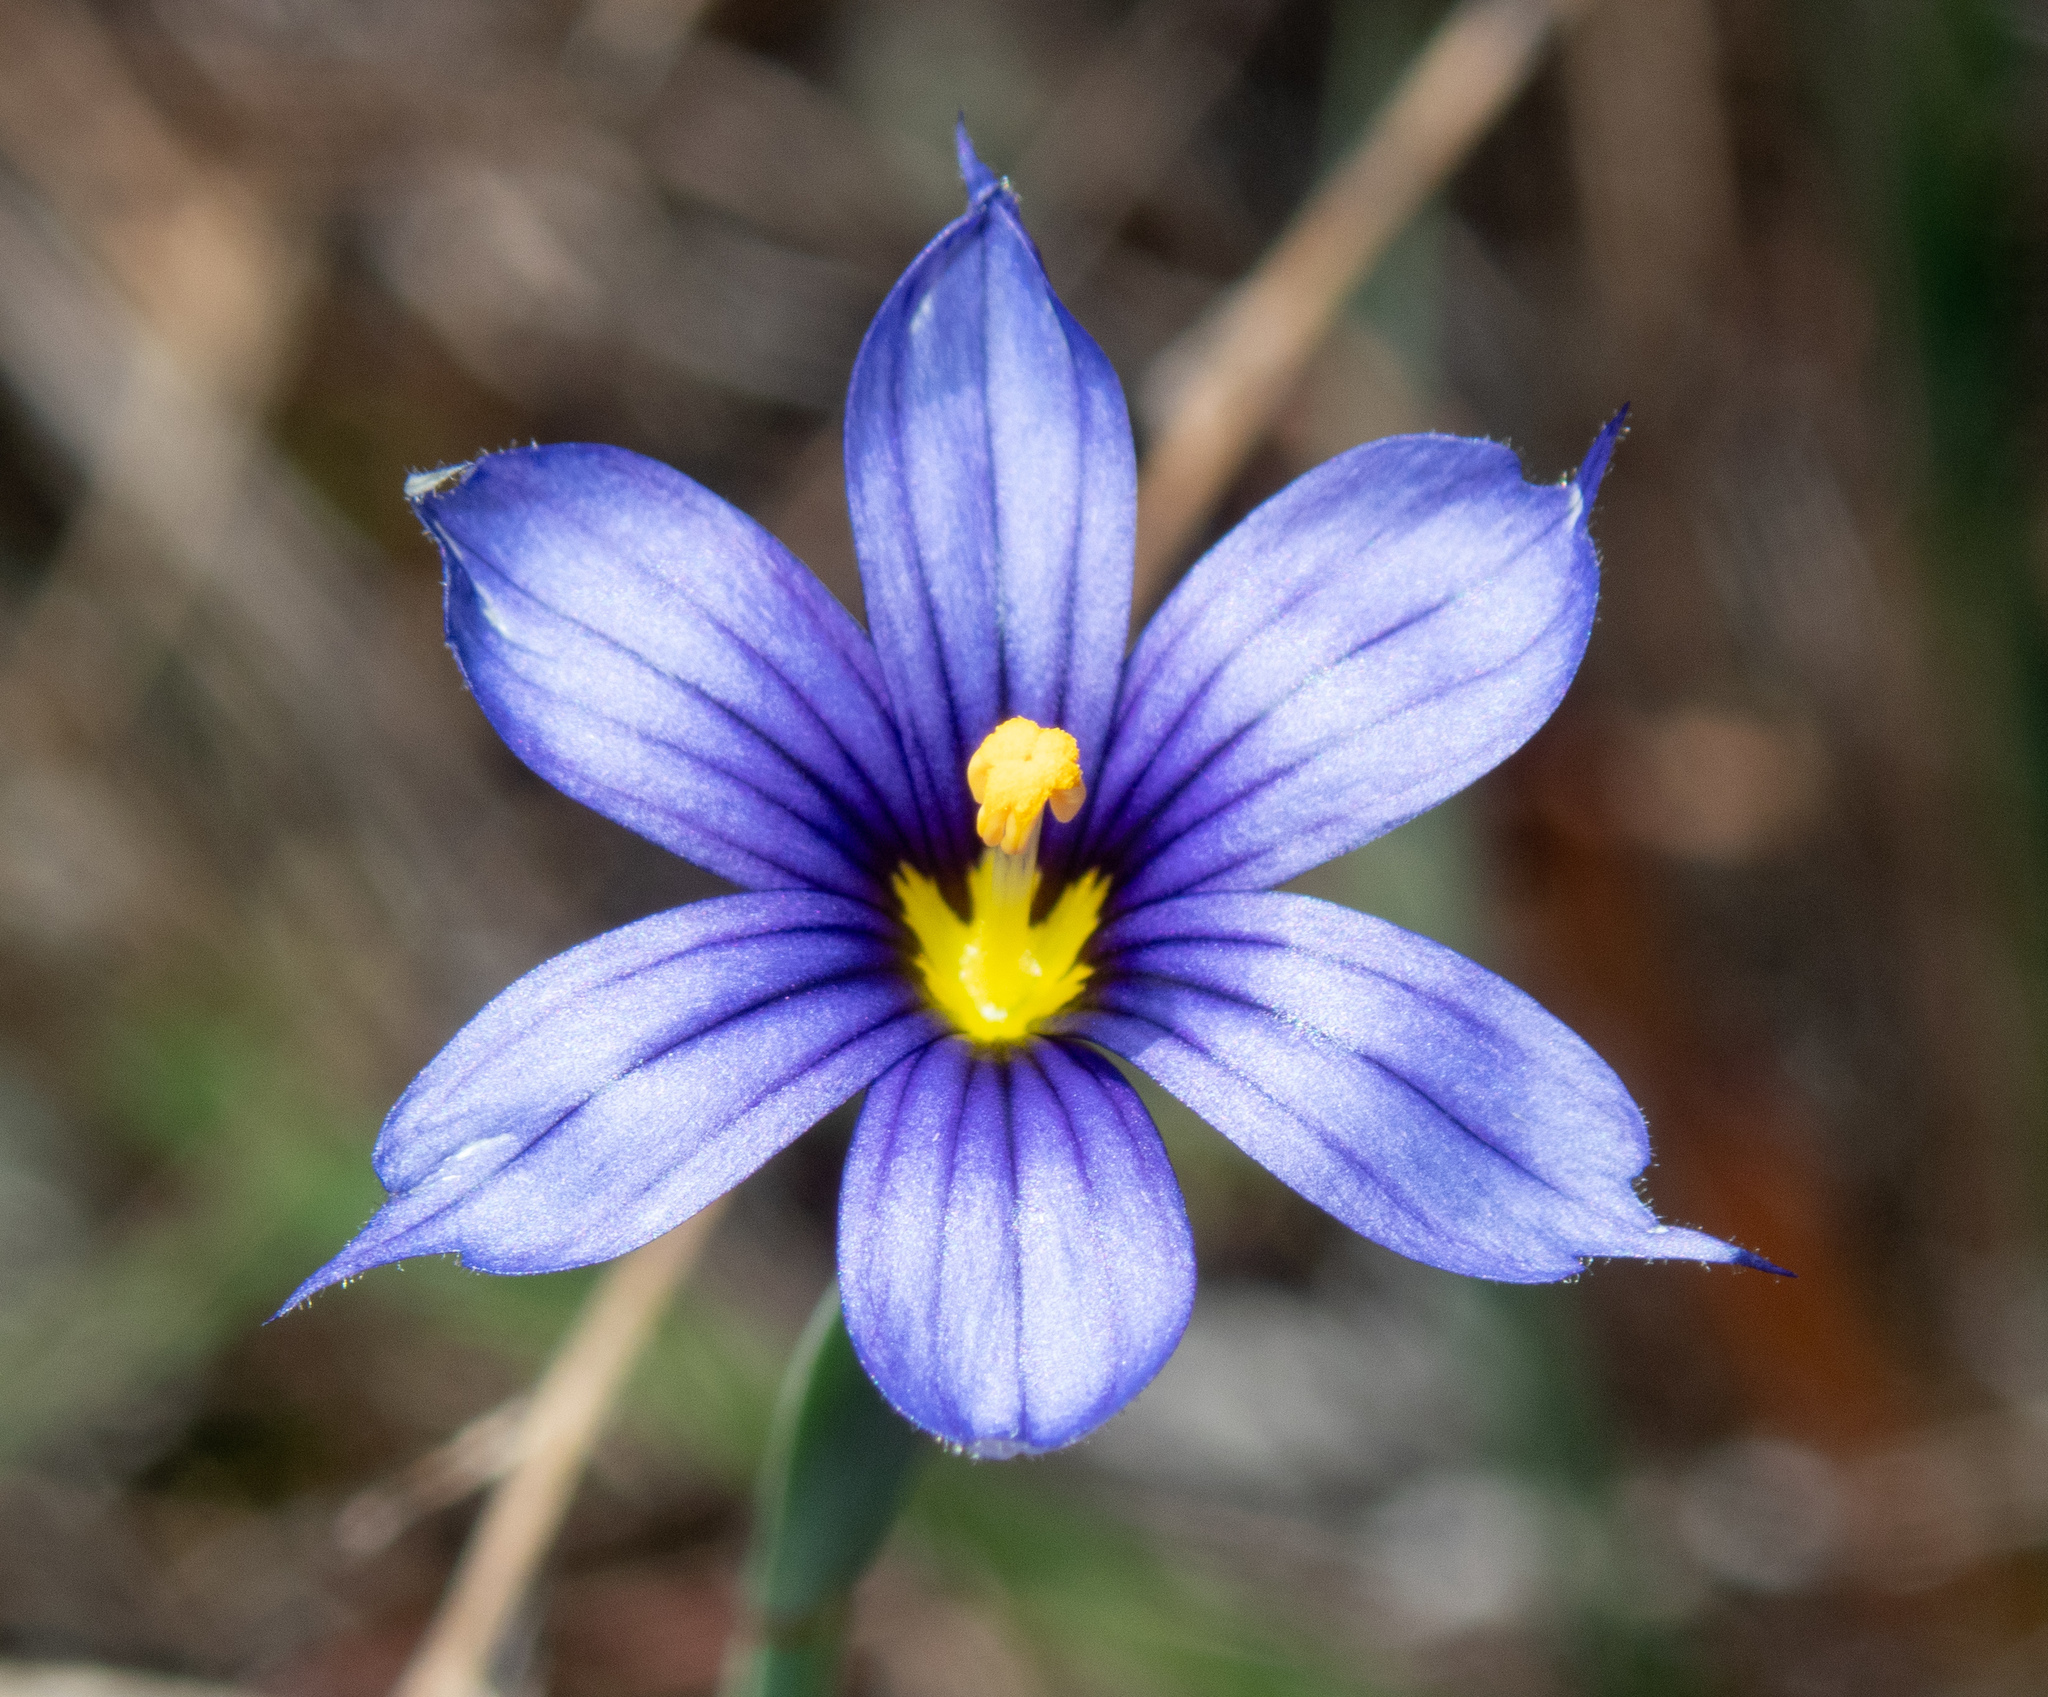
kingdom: Plantae
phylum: Tracheophyta
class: Liliopsida
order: Asparagales
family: Iridaceae
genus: Sisyrinchium
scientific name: Sisyrinchium bellum
